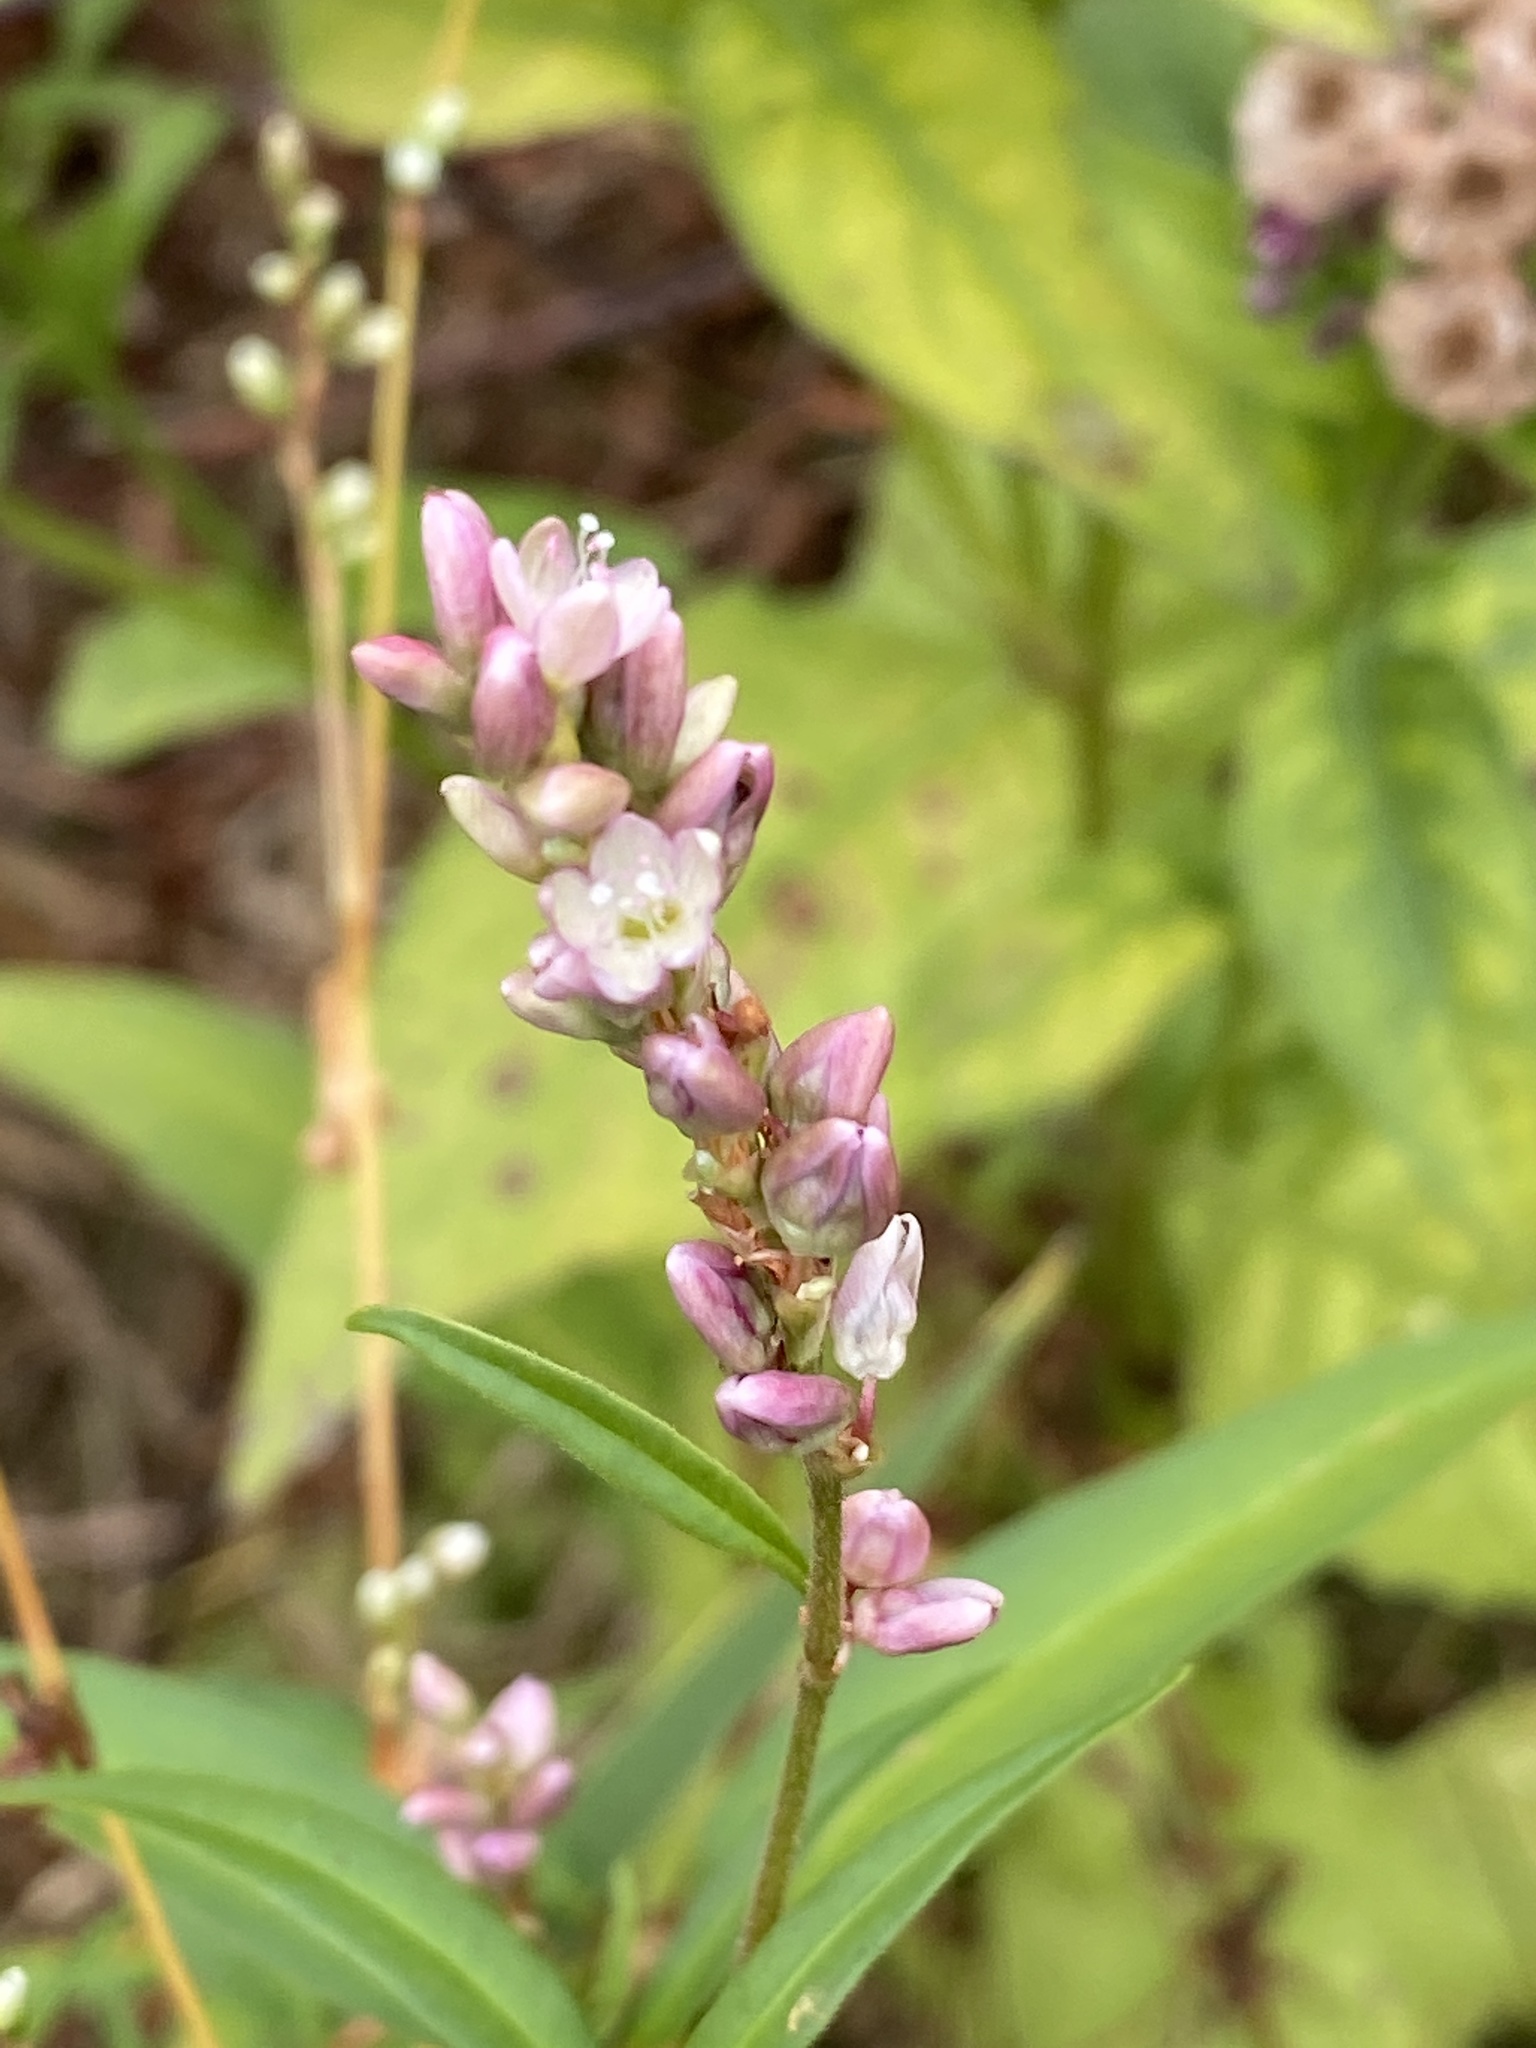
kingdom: Plantae
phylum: Tracheophyta
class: Magnoliopsida
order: Caryophyllales
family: Polygonaceae
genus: Persicaria
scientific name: Persicaria pensylvanica
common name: Pinkweed
